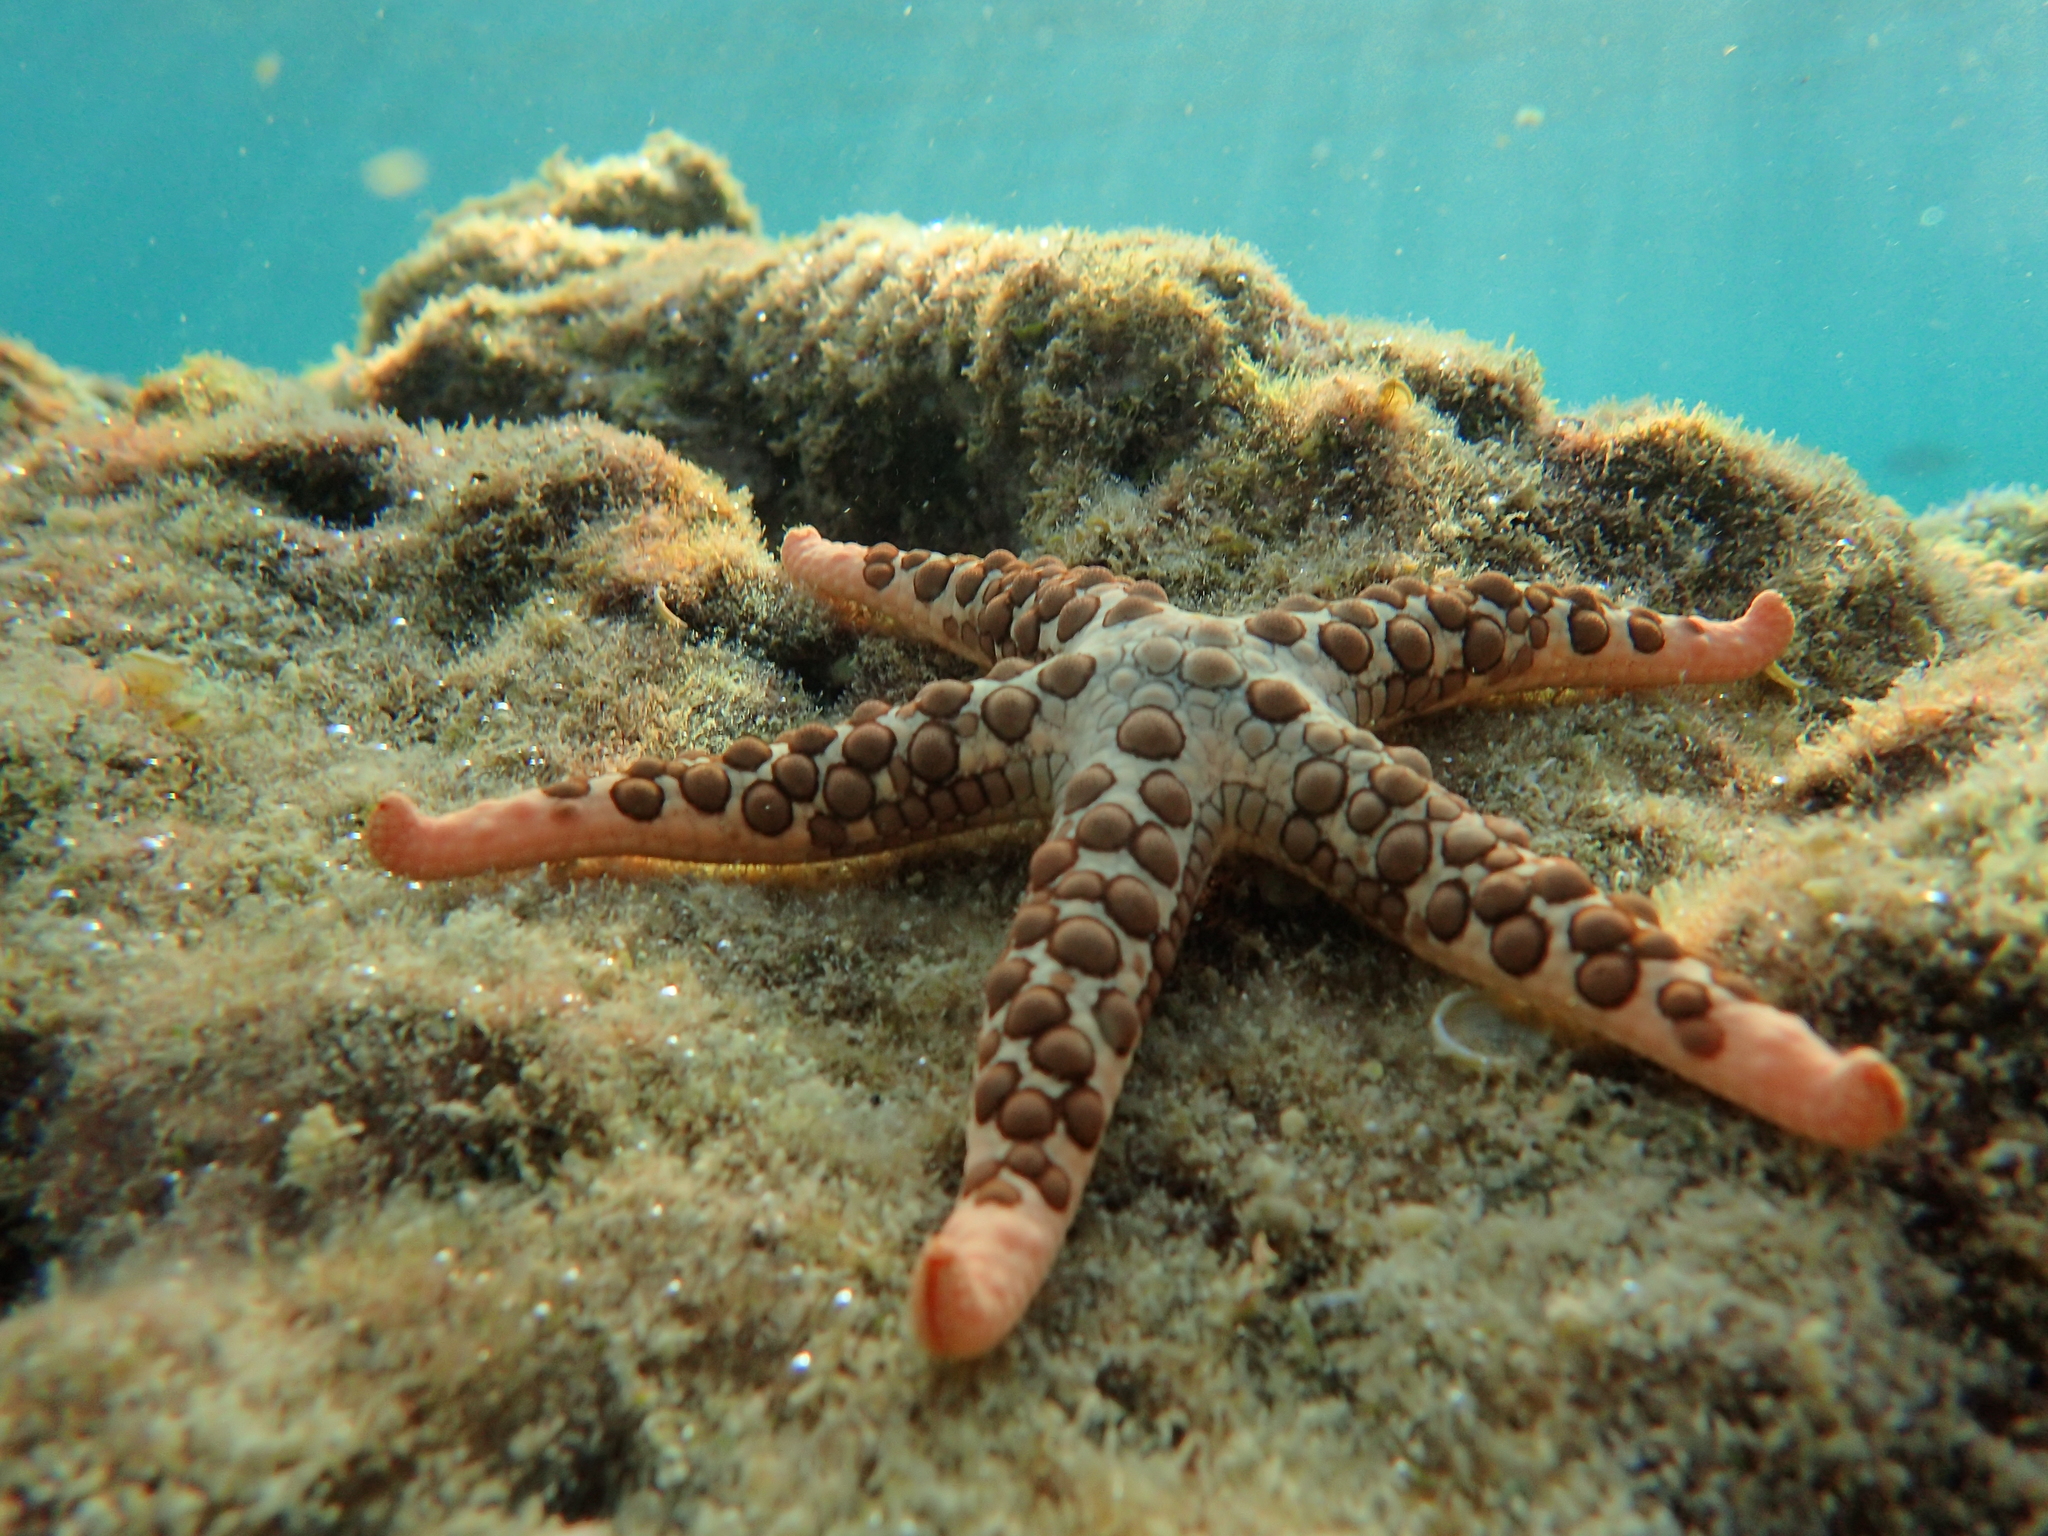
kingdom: Animalia
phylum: Echinodermata
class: Asteroidea
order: Valvatida
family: Ophidiasteridae
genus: Nardoa
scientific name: Nardoa variolata
